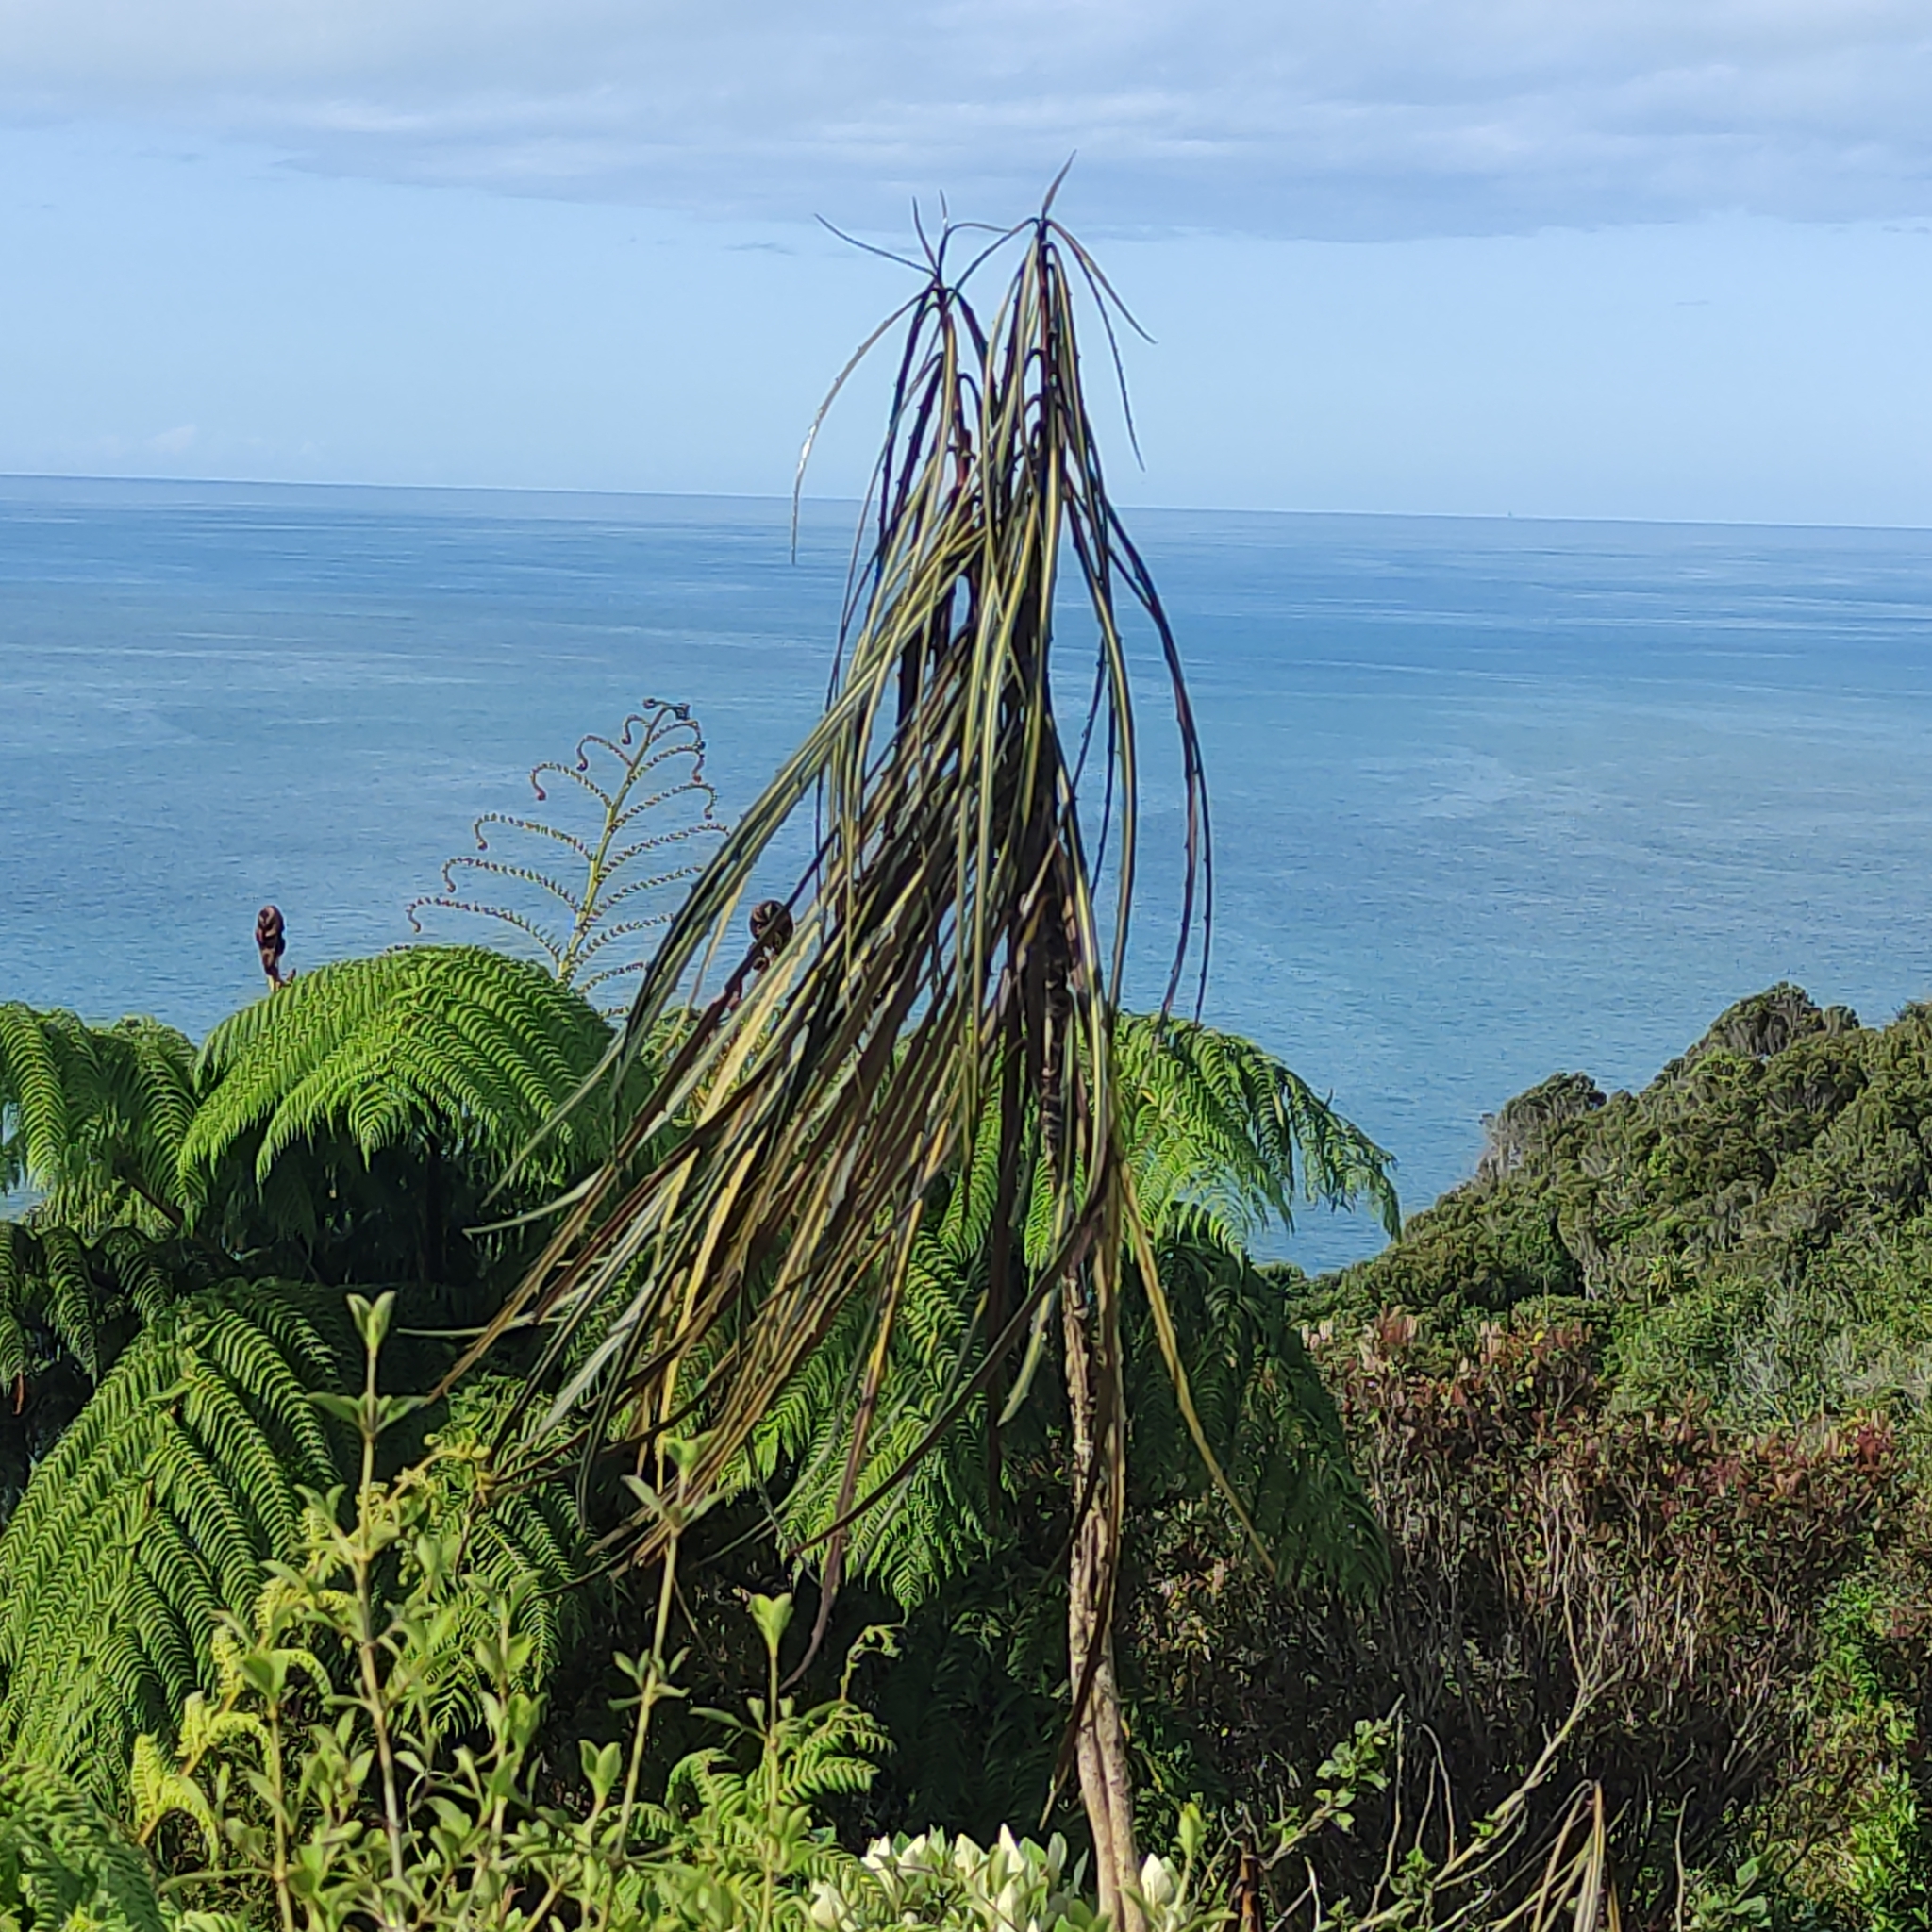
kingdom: Plantae
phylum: Tracheophyta
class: Magnoliopsida
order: Apiales
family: Araliaceae
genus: Pseudopanax
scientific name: Pseudopanax crassifolius
